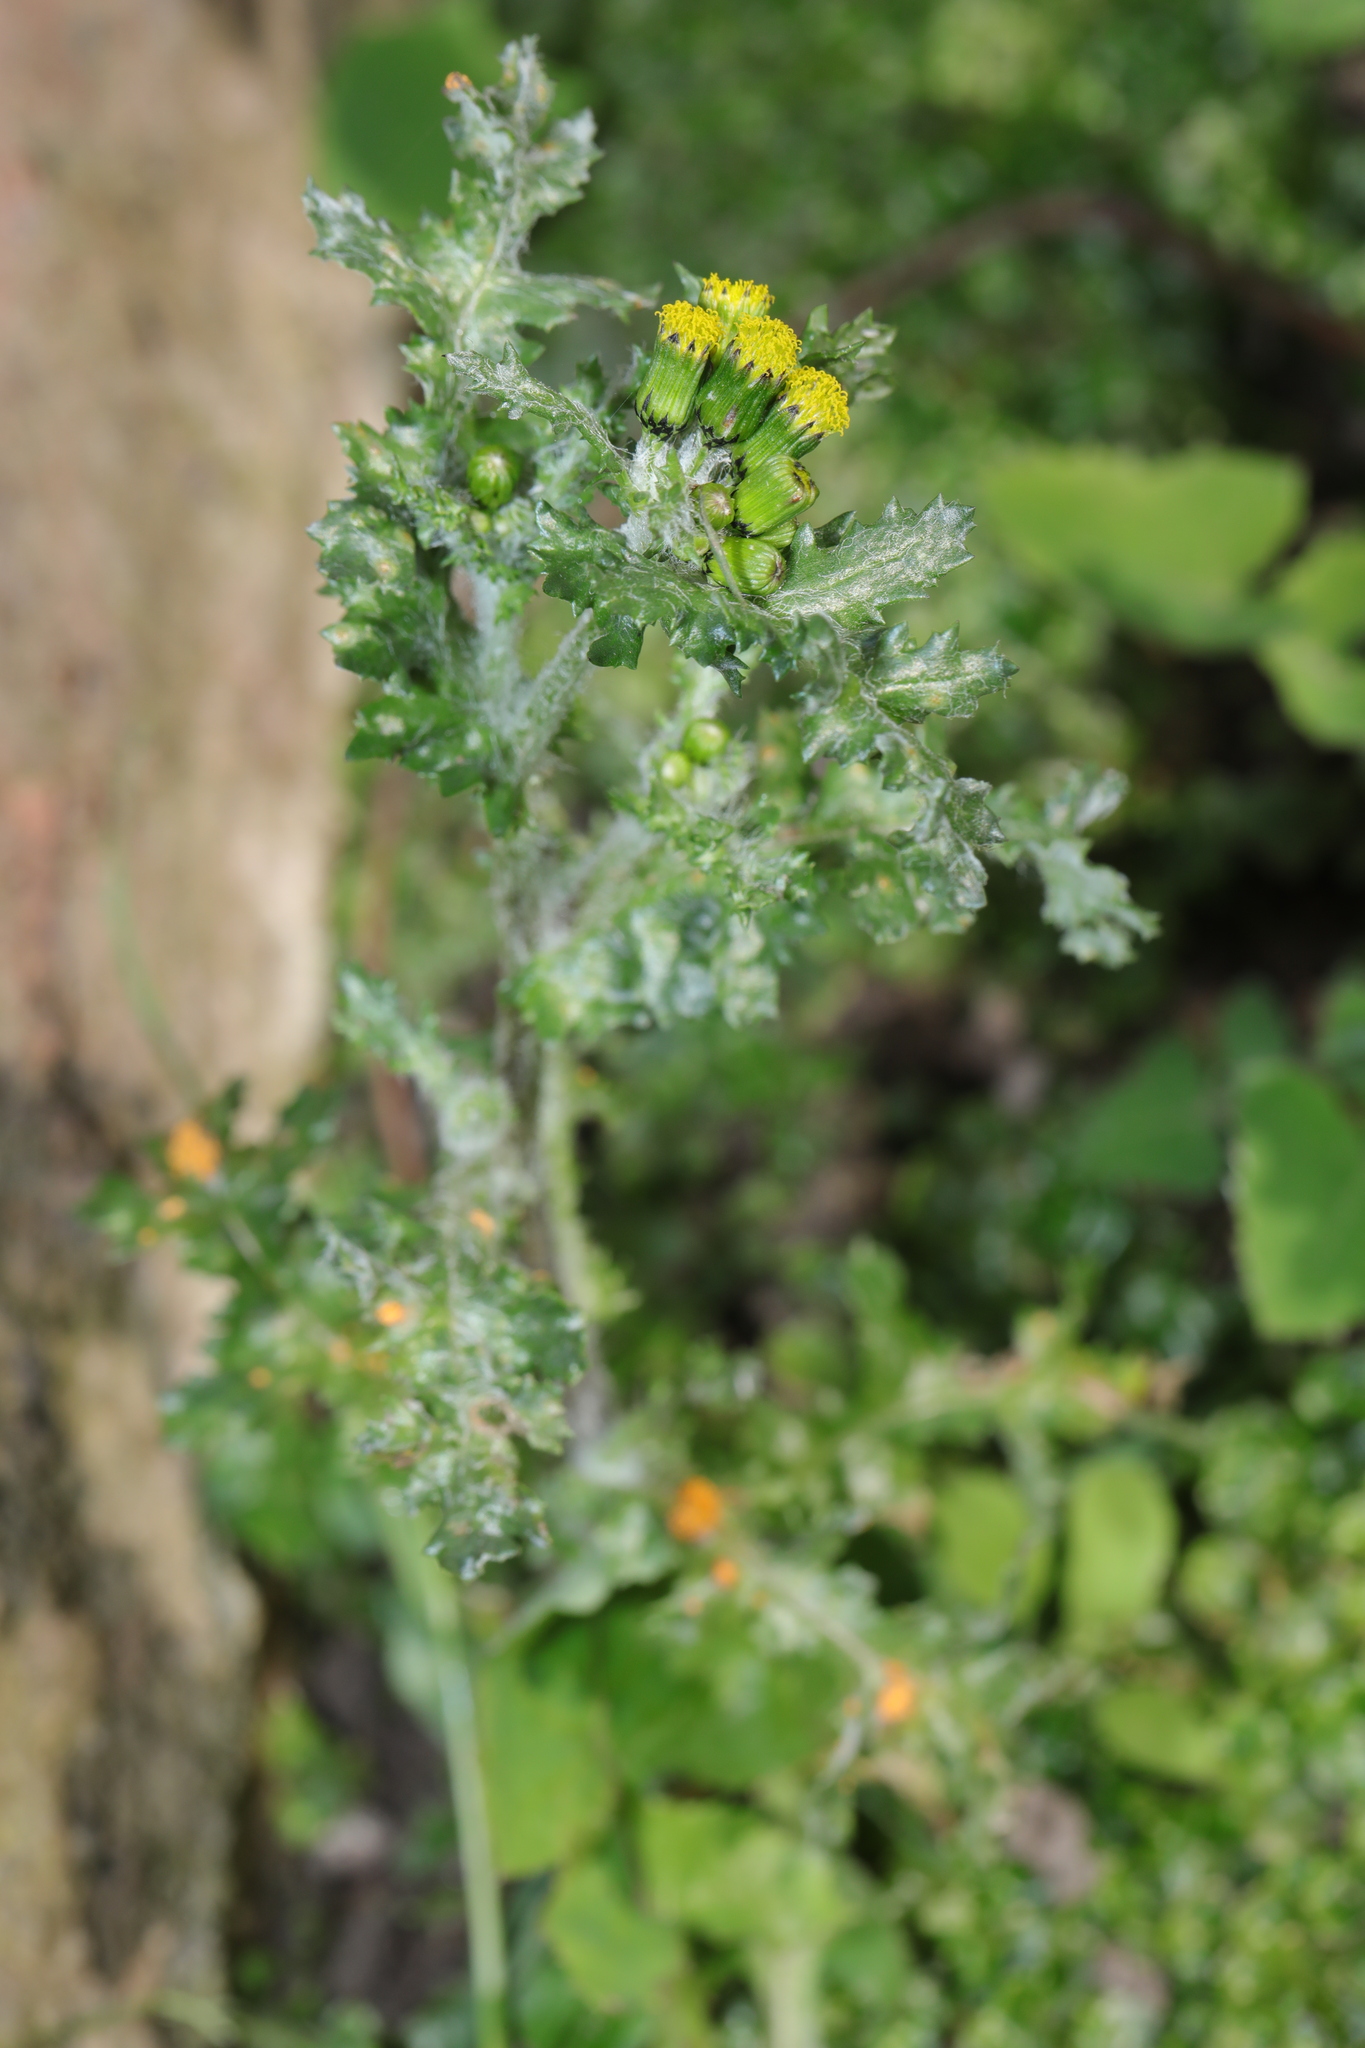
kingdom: Plantae
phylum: Tracheophyta
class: Magnoliopsida
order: Asterales
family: Asteraceae
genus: Senecio
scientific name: Senecio vulgaris
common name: Old-man-in-the-spring
